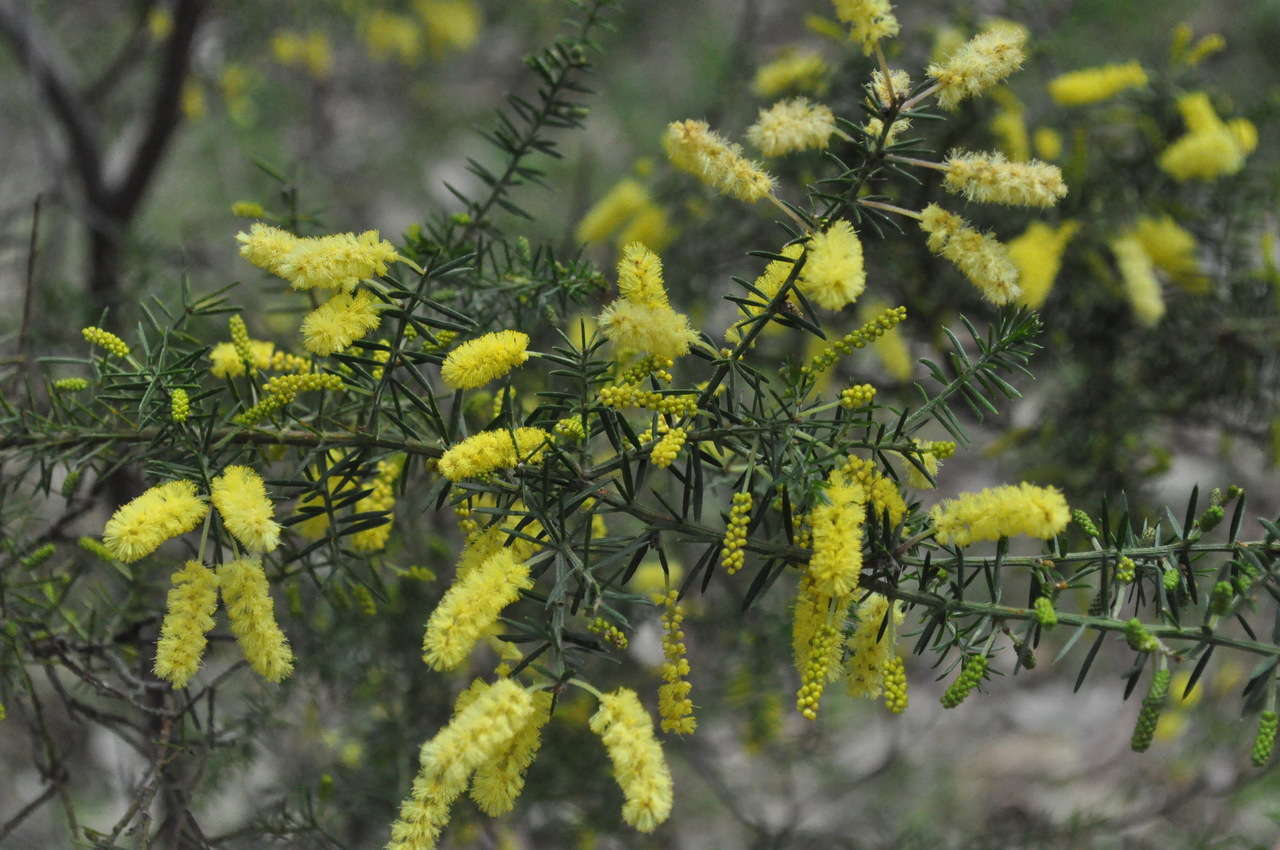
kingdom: Plantae
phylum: Tracheophyta
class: Magnoliopsida
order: Fabales
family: Fabaceae
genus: Acacia
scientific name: Acacia verticillata
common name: Prickly moses
